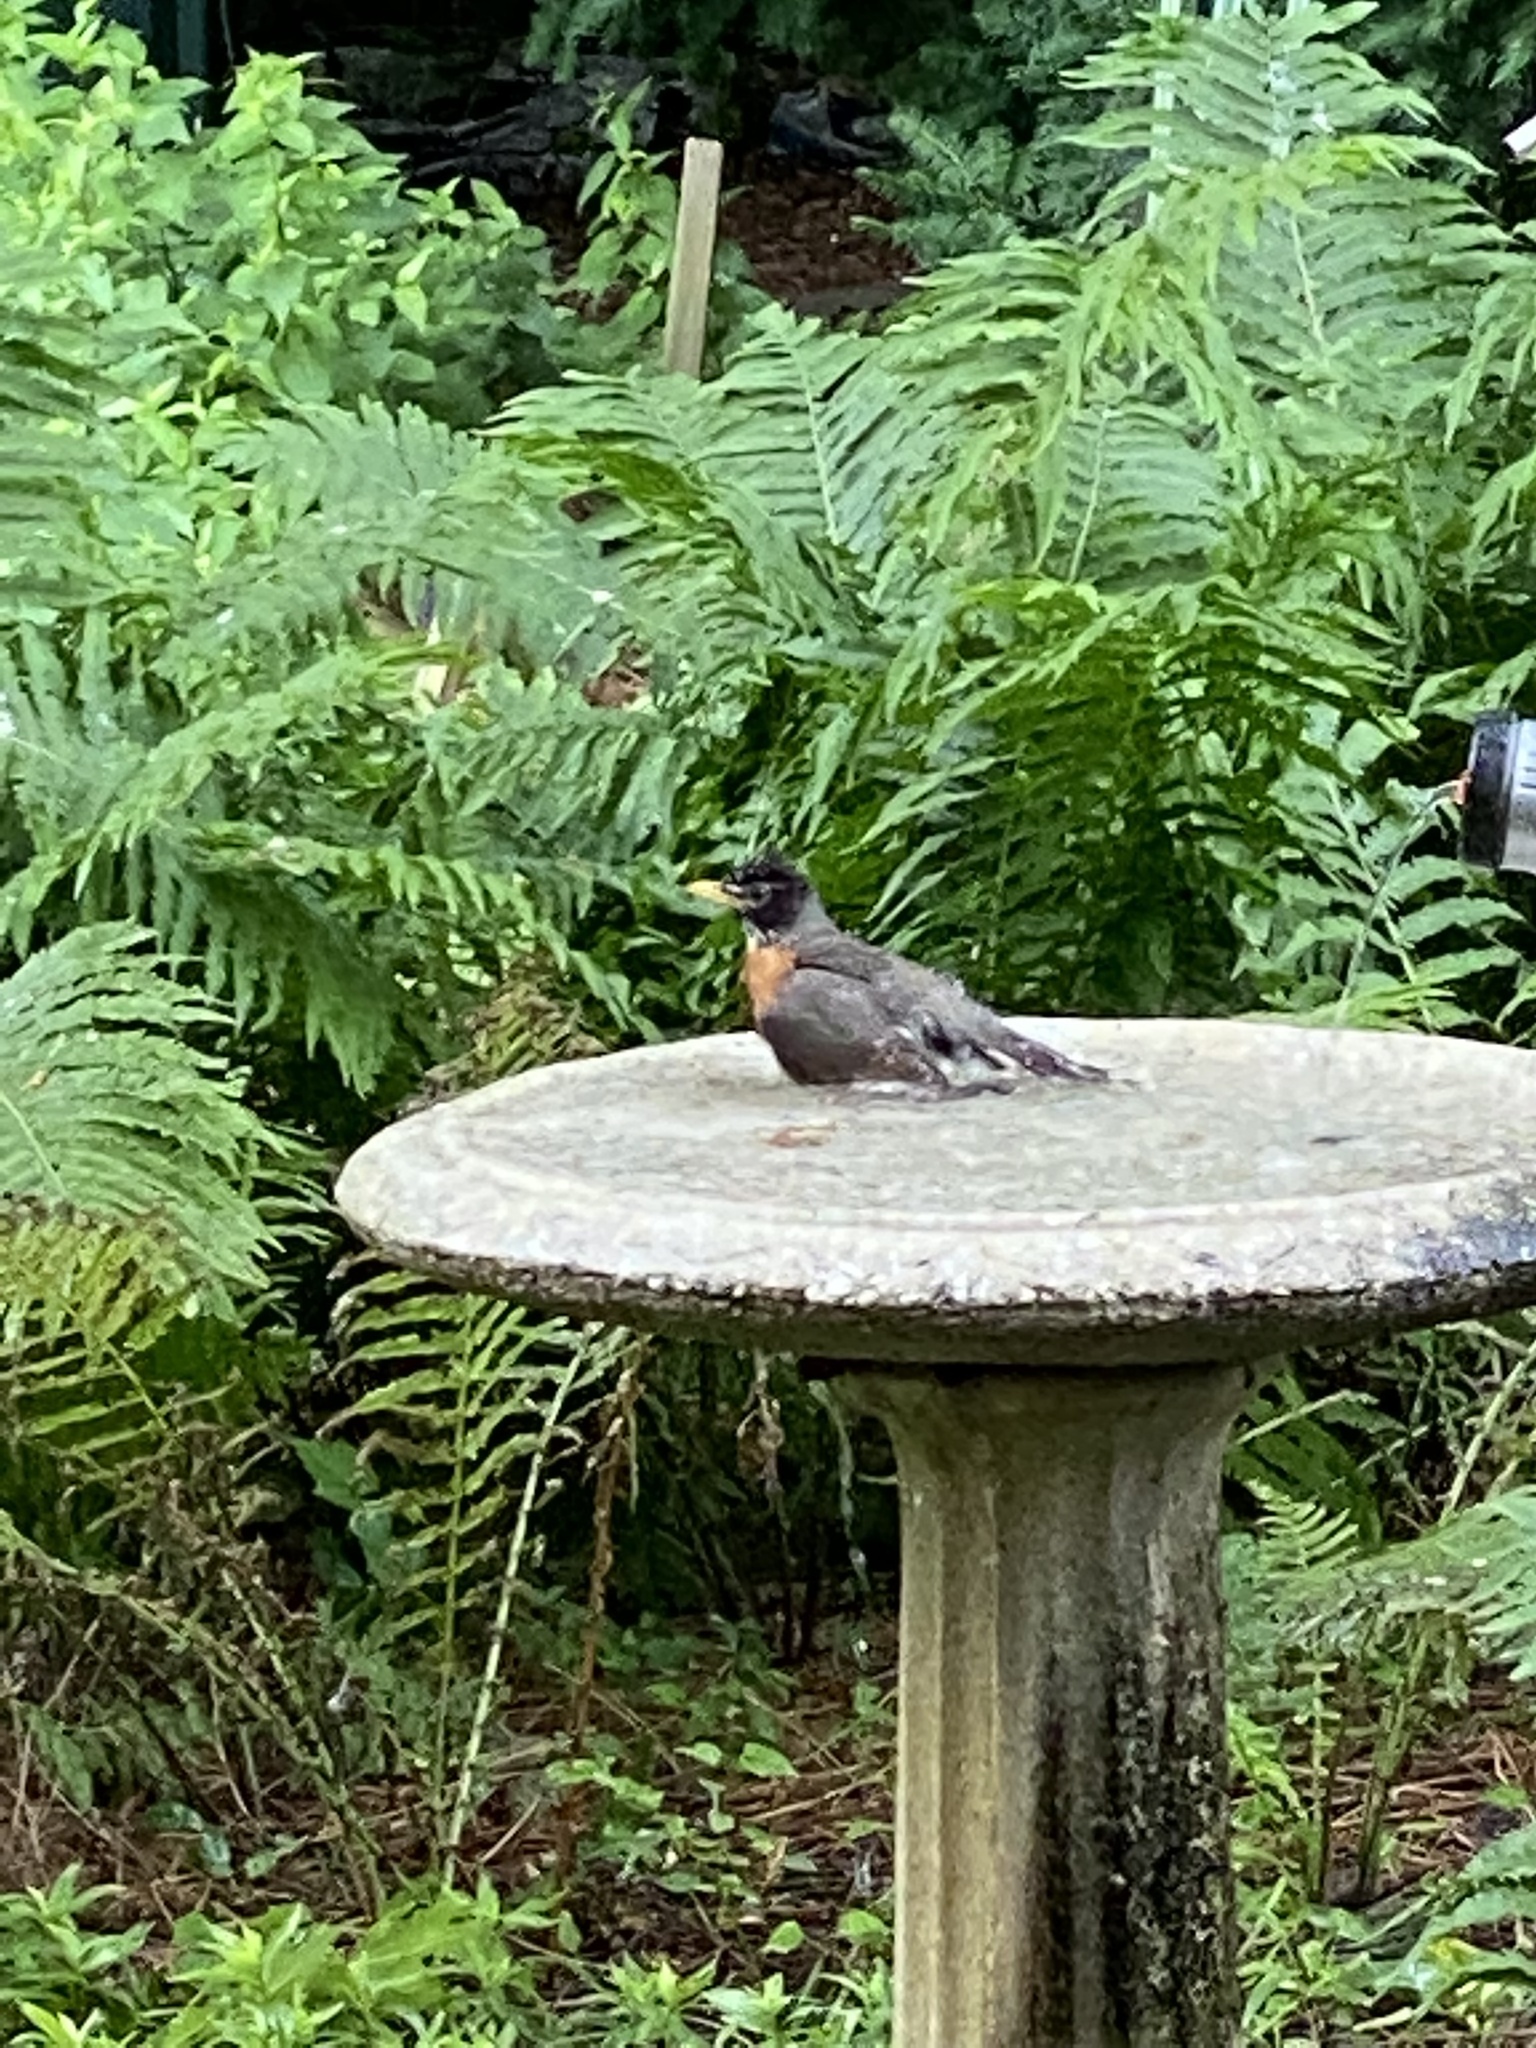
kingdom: Animalia
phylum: Chordata
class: Aves
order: Passeriformes
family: Turdidae
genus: Turdus
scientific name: Turdus migratorius
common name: American robin
